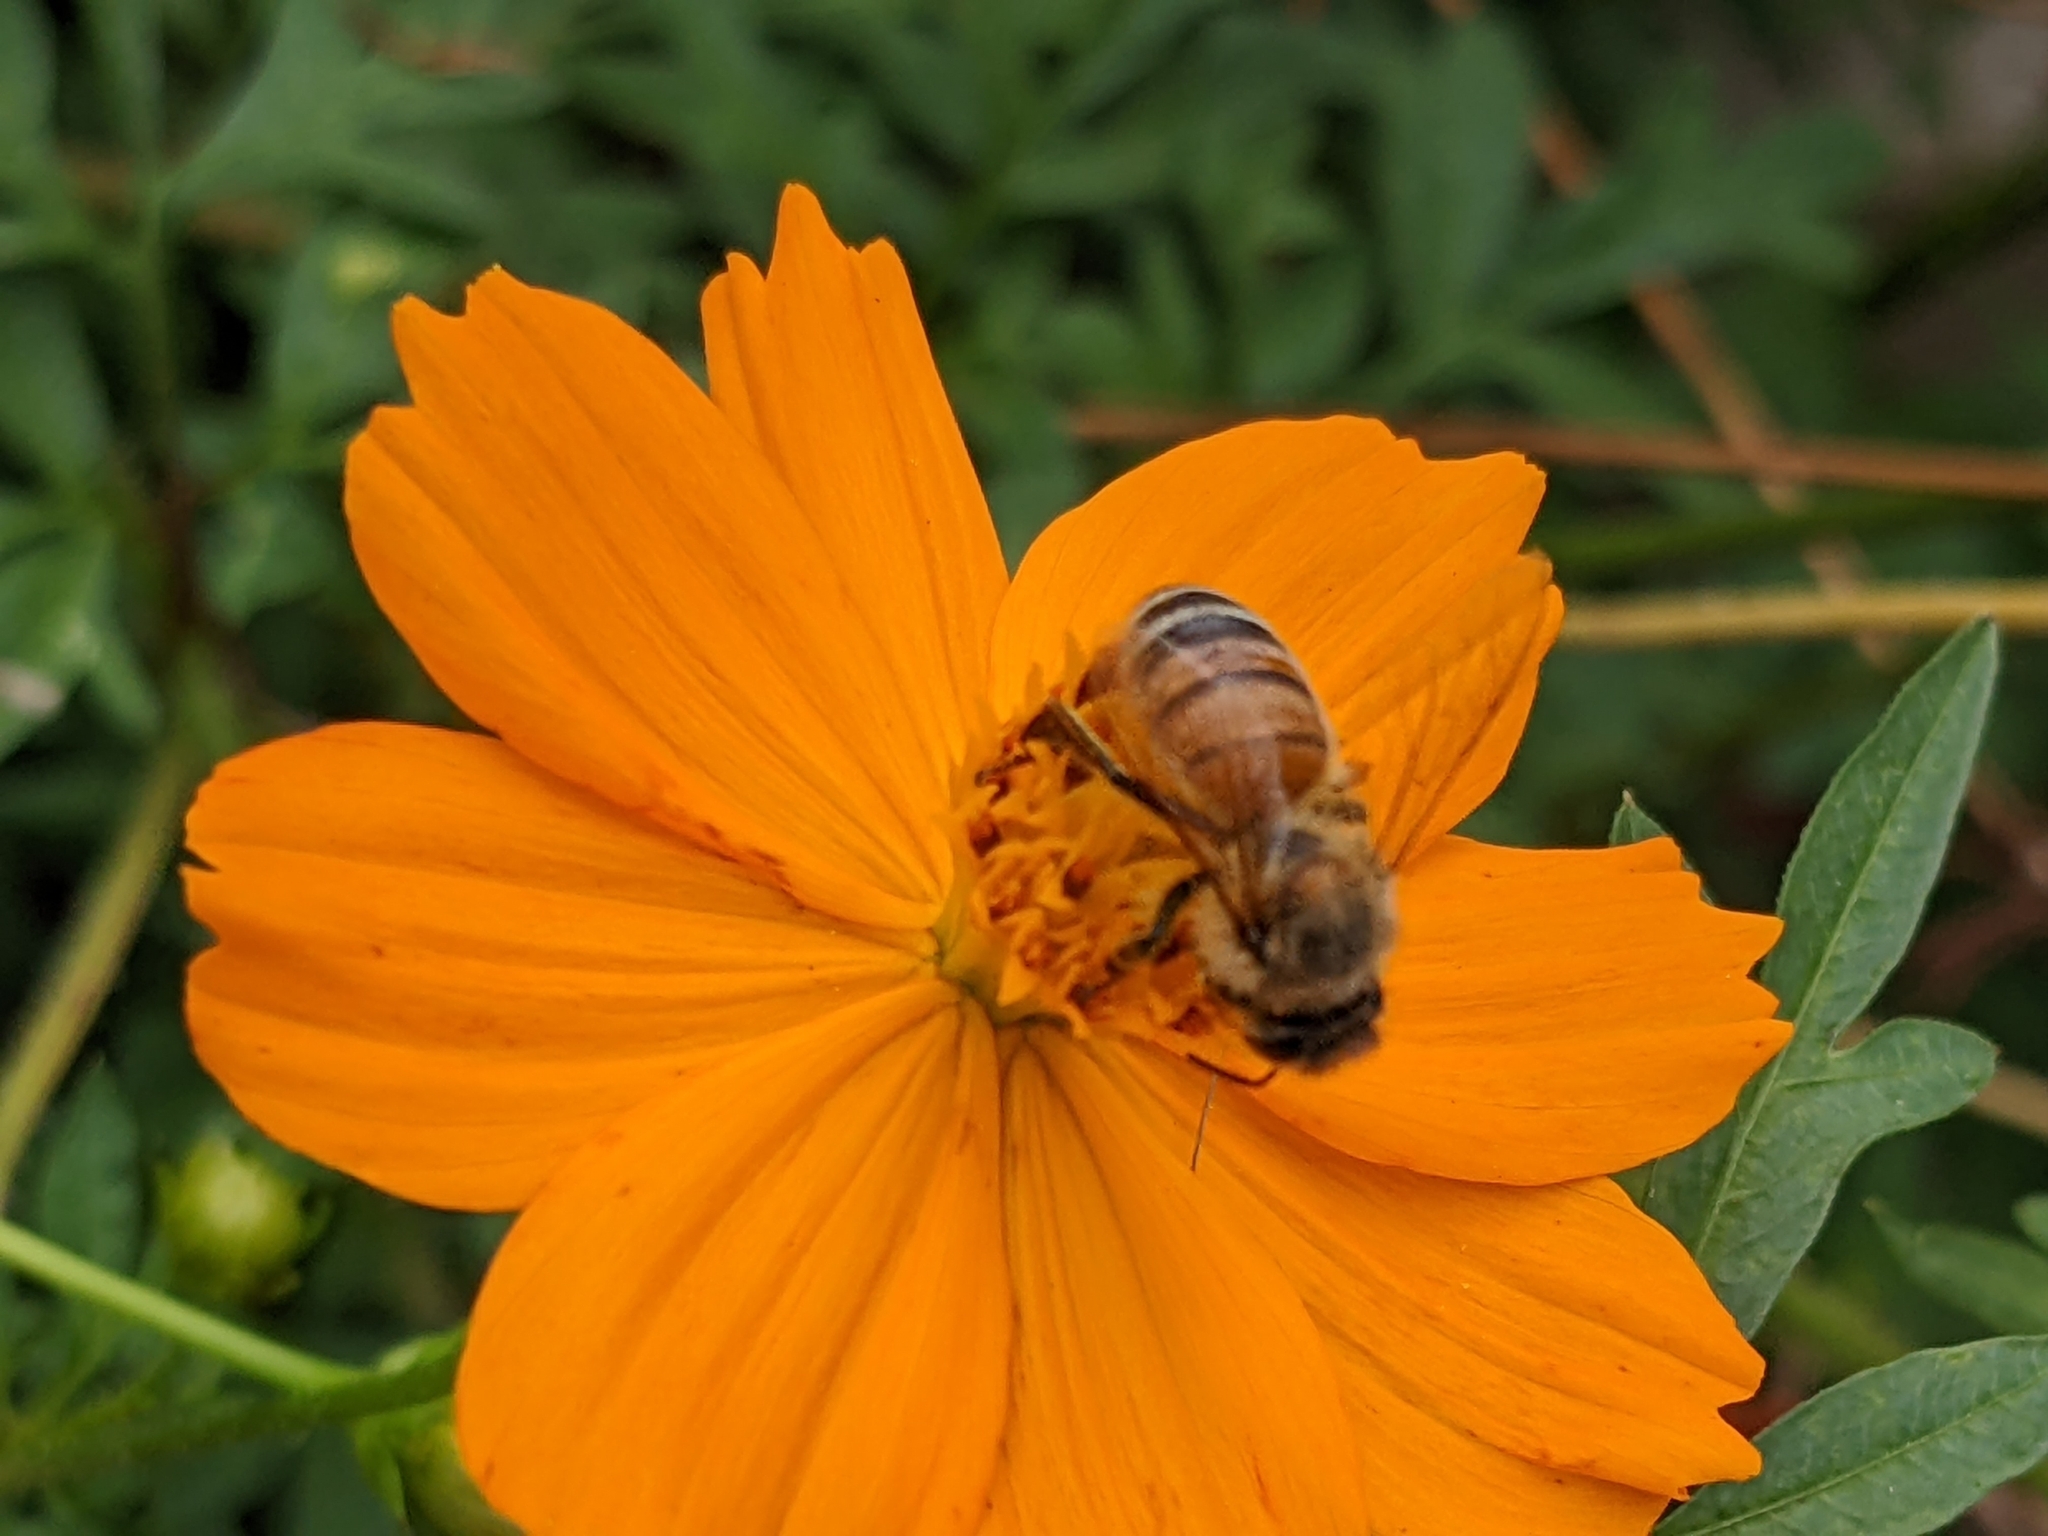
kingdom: Animalia
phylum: Arthropoda
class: Insecta
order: Hymenoptera
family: Apidae
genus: Apis
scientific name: Apis mellifera
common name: Honey bee
